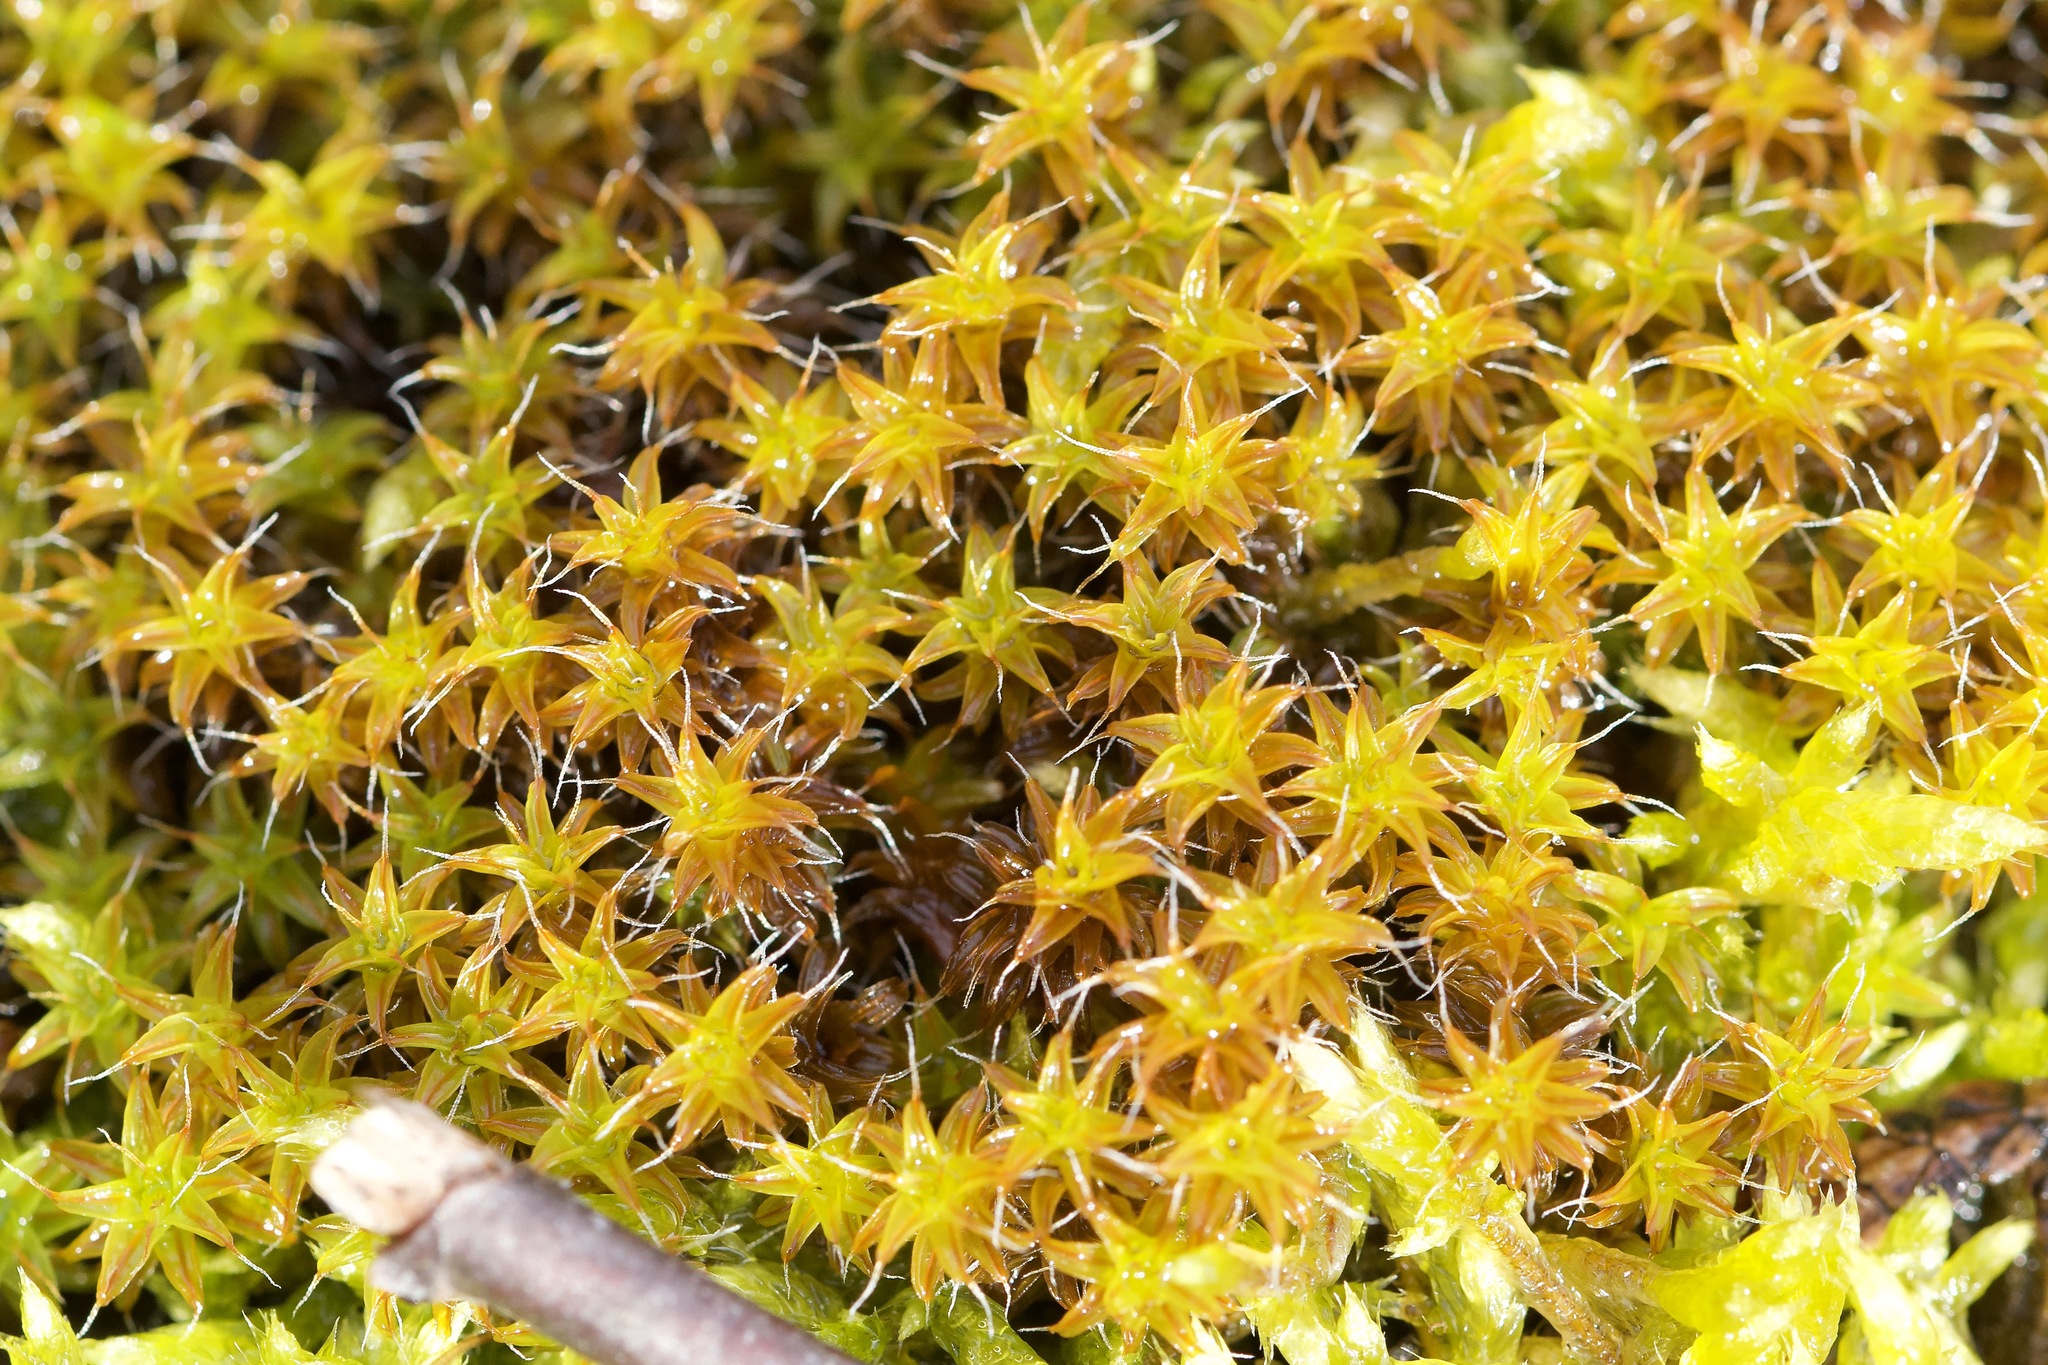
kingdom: Plantae
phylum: Bryophyta
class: Bryopsida
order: Pottiales
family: Pottiaceae
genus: Syntrichia
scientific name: Syntrichia ruralis
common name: Sidewalk screw moss
